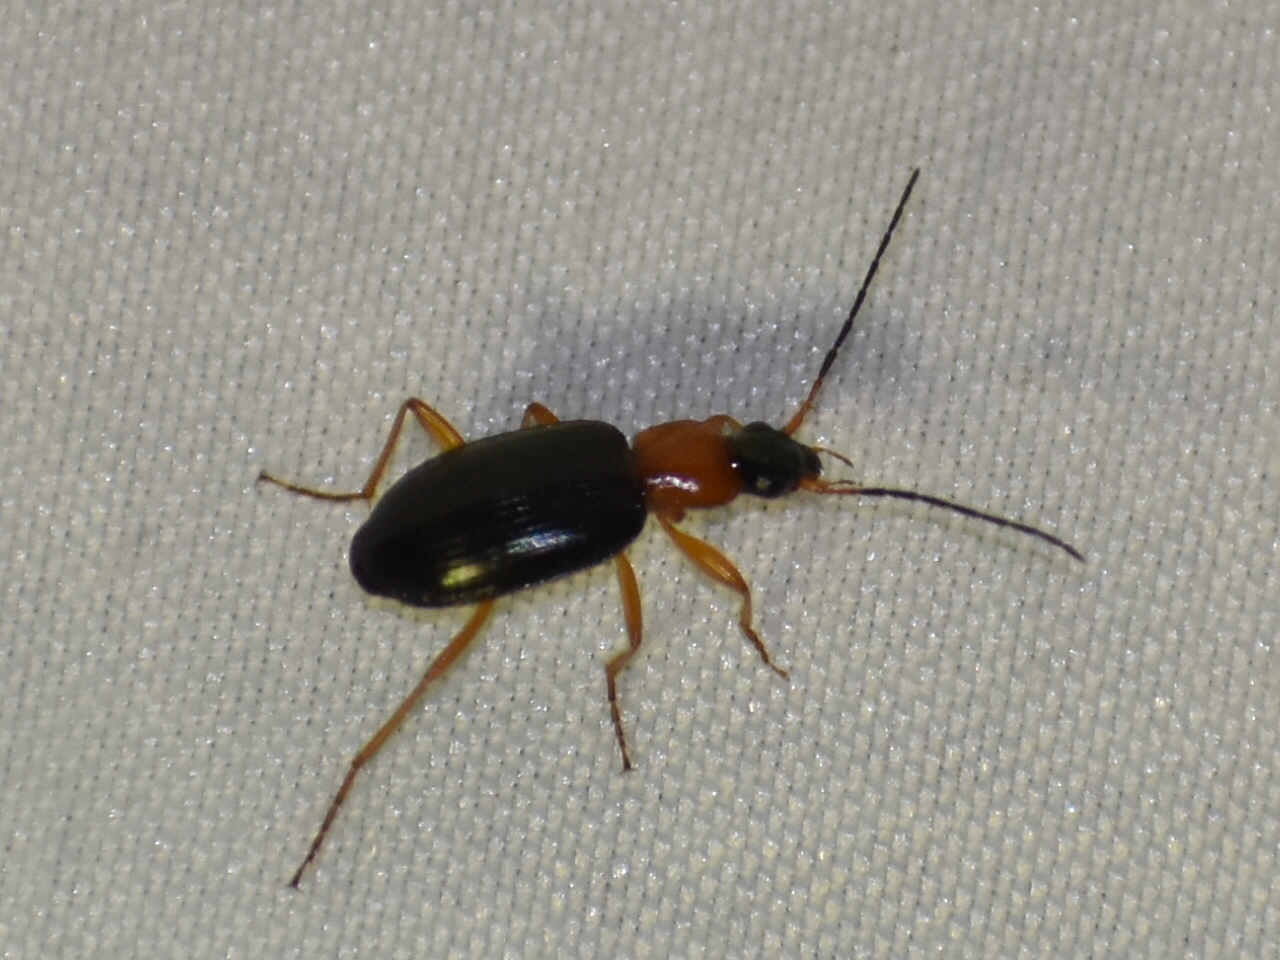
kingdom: Animalia
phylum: Arthropoda
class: Insecta
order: Coleoptera
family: Carabidae
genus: Agonum
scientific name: Agonum decorum
